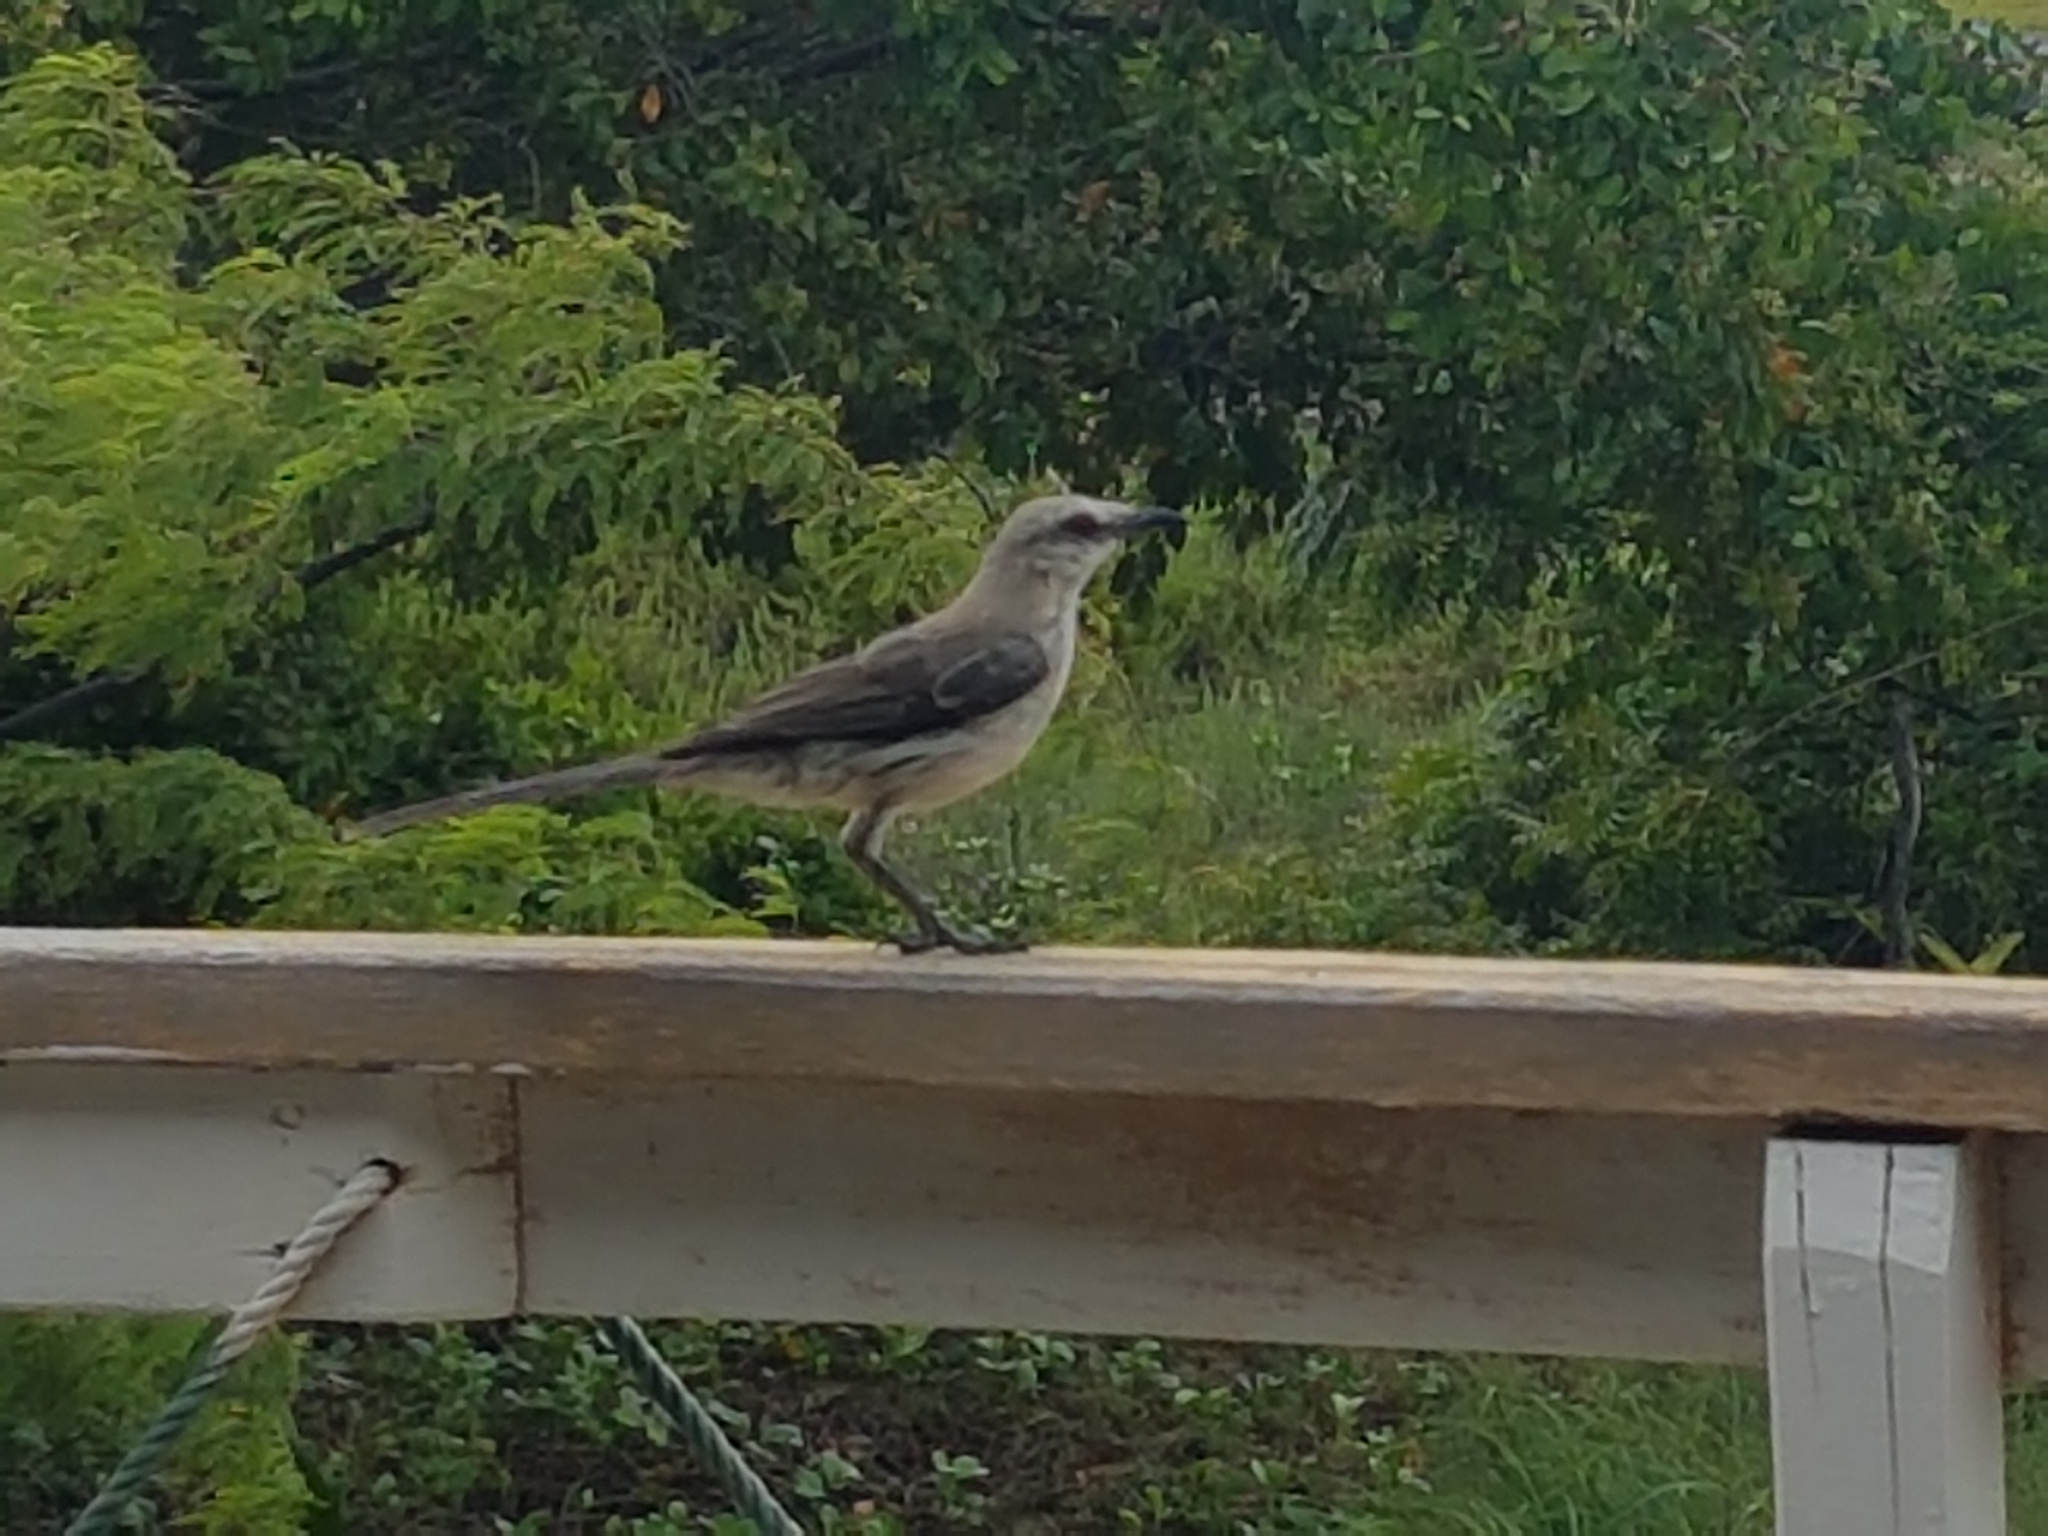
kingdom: Animalia
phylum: Chordata
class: Aves
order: Passeriformes
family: Mimidae
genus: Mimus
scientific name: Mimus gilvus
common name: Tropical mockingbird
